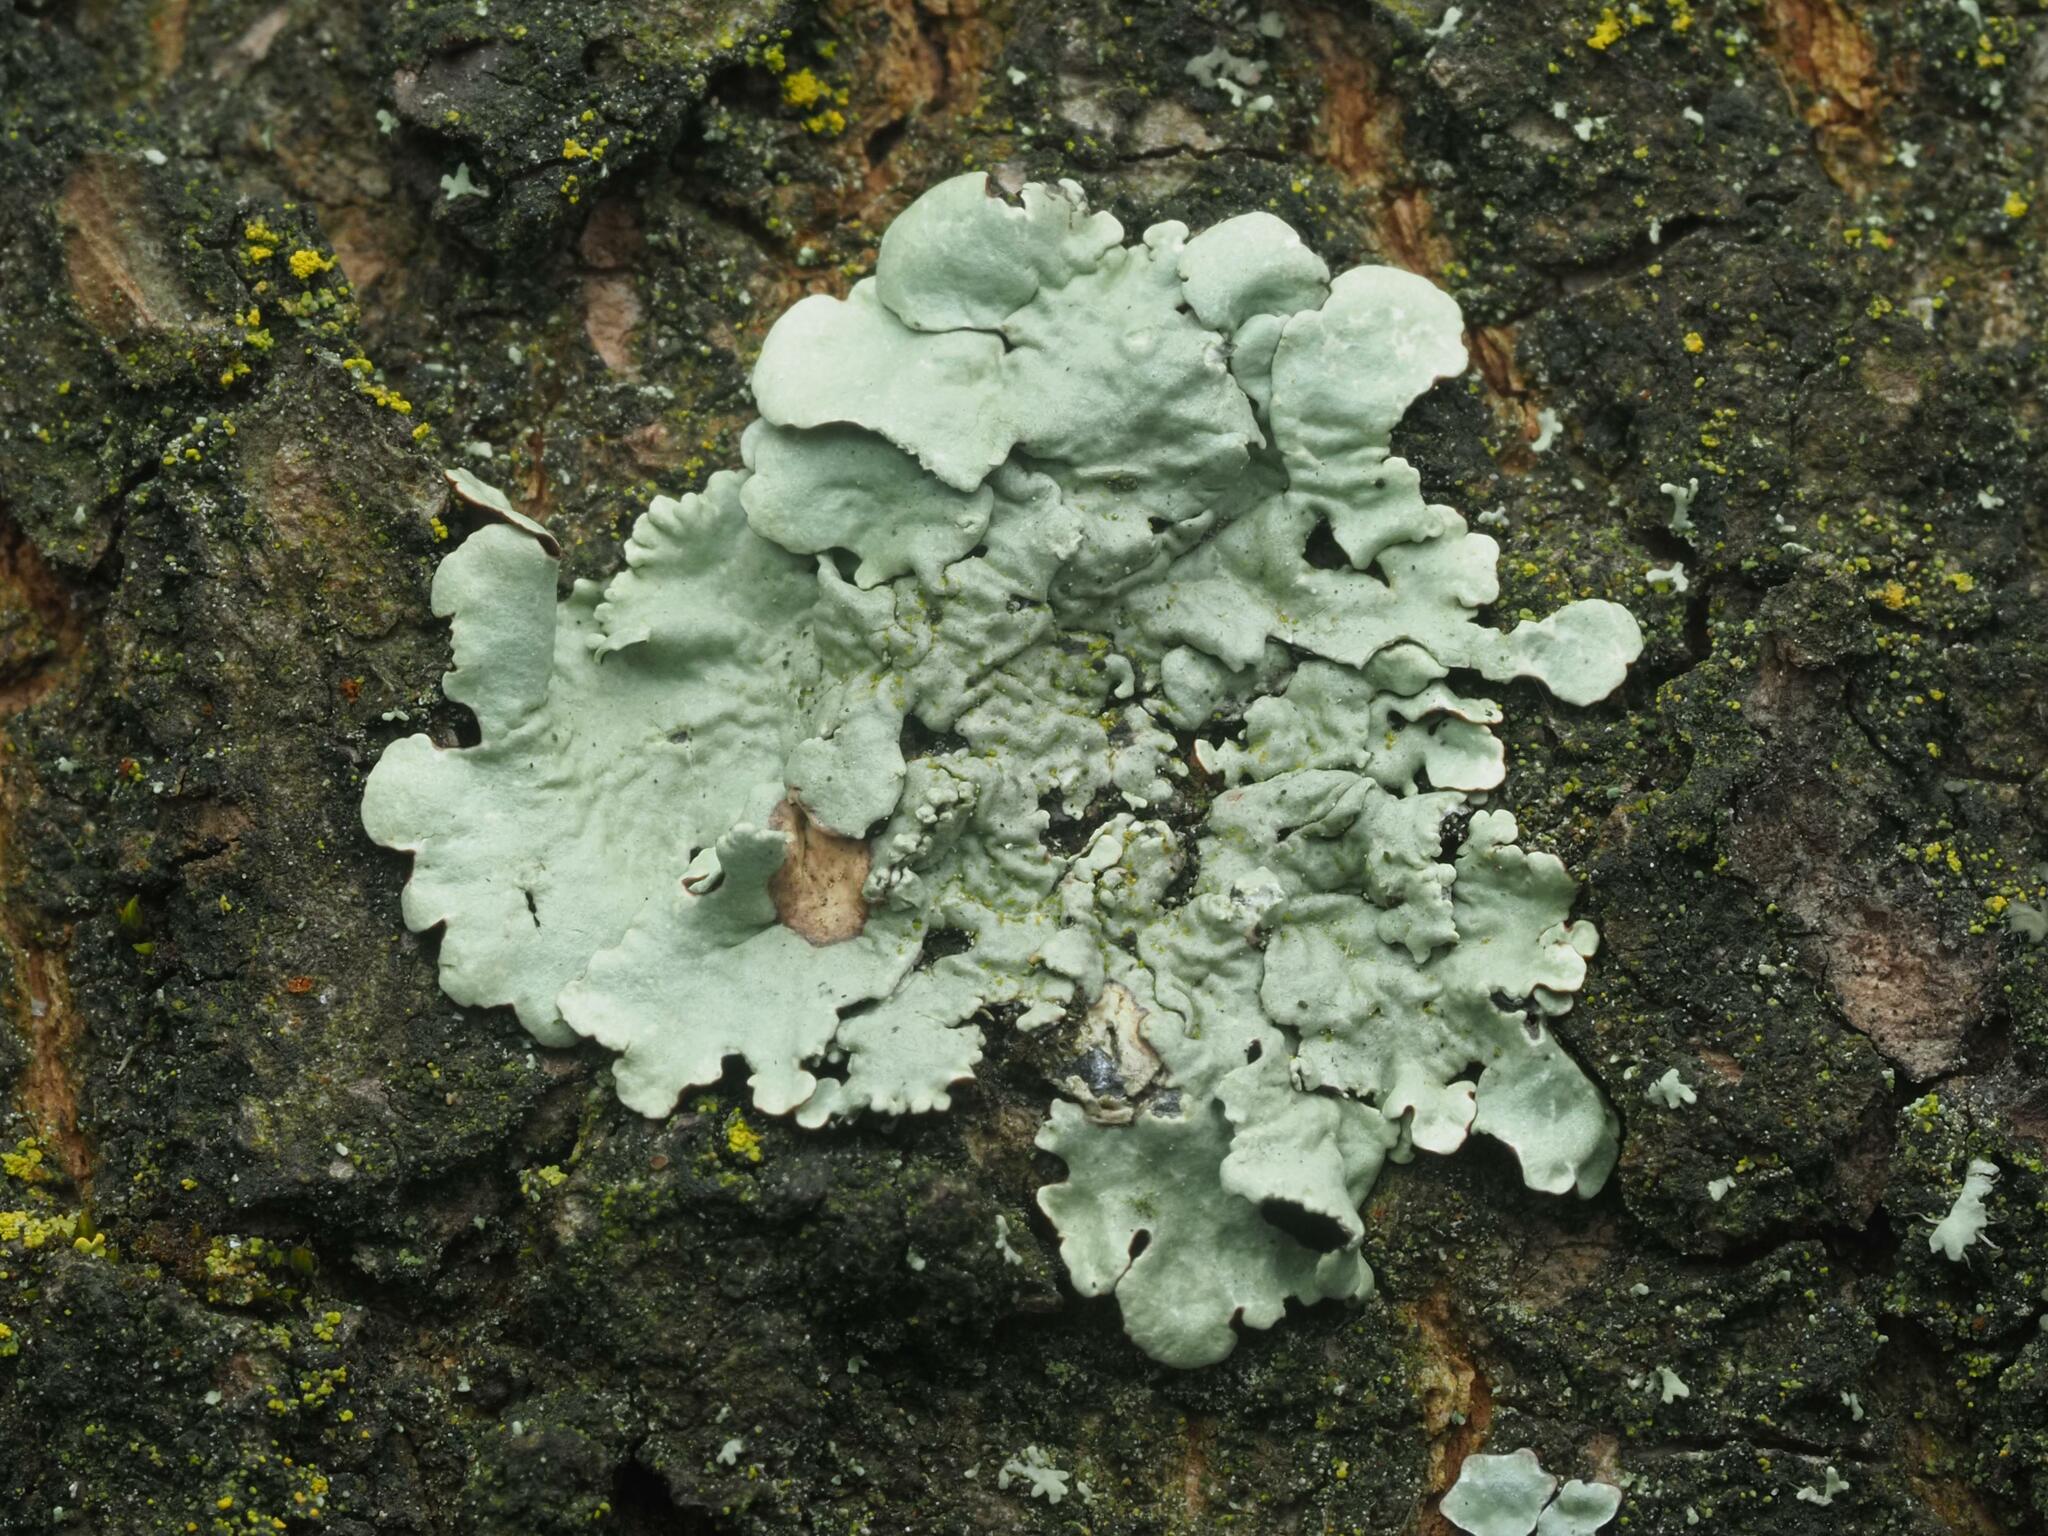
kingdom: Fungi
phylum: Ascomycota
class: Lecanoromycetes
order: Lecanorales
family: Parmeliaceae
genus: Flavoparmelia
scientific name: Flavoparmelia caperata
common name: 40-mile per hour lichen
